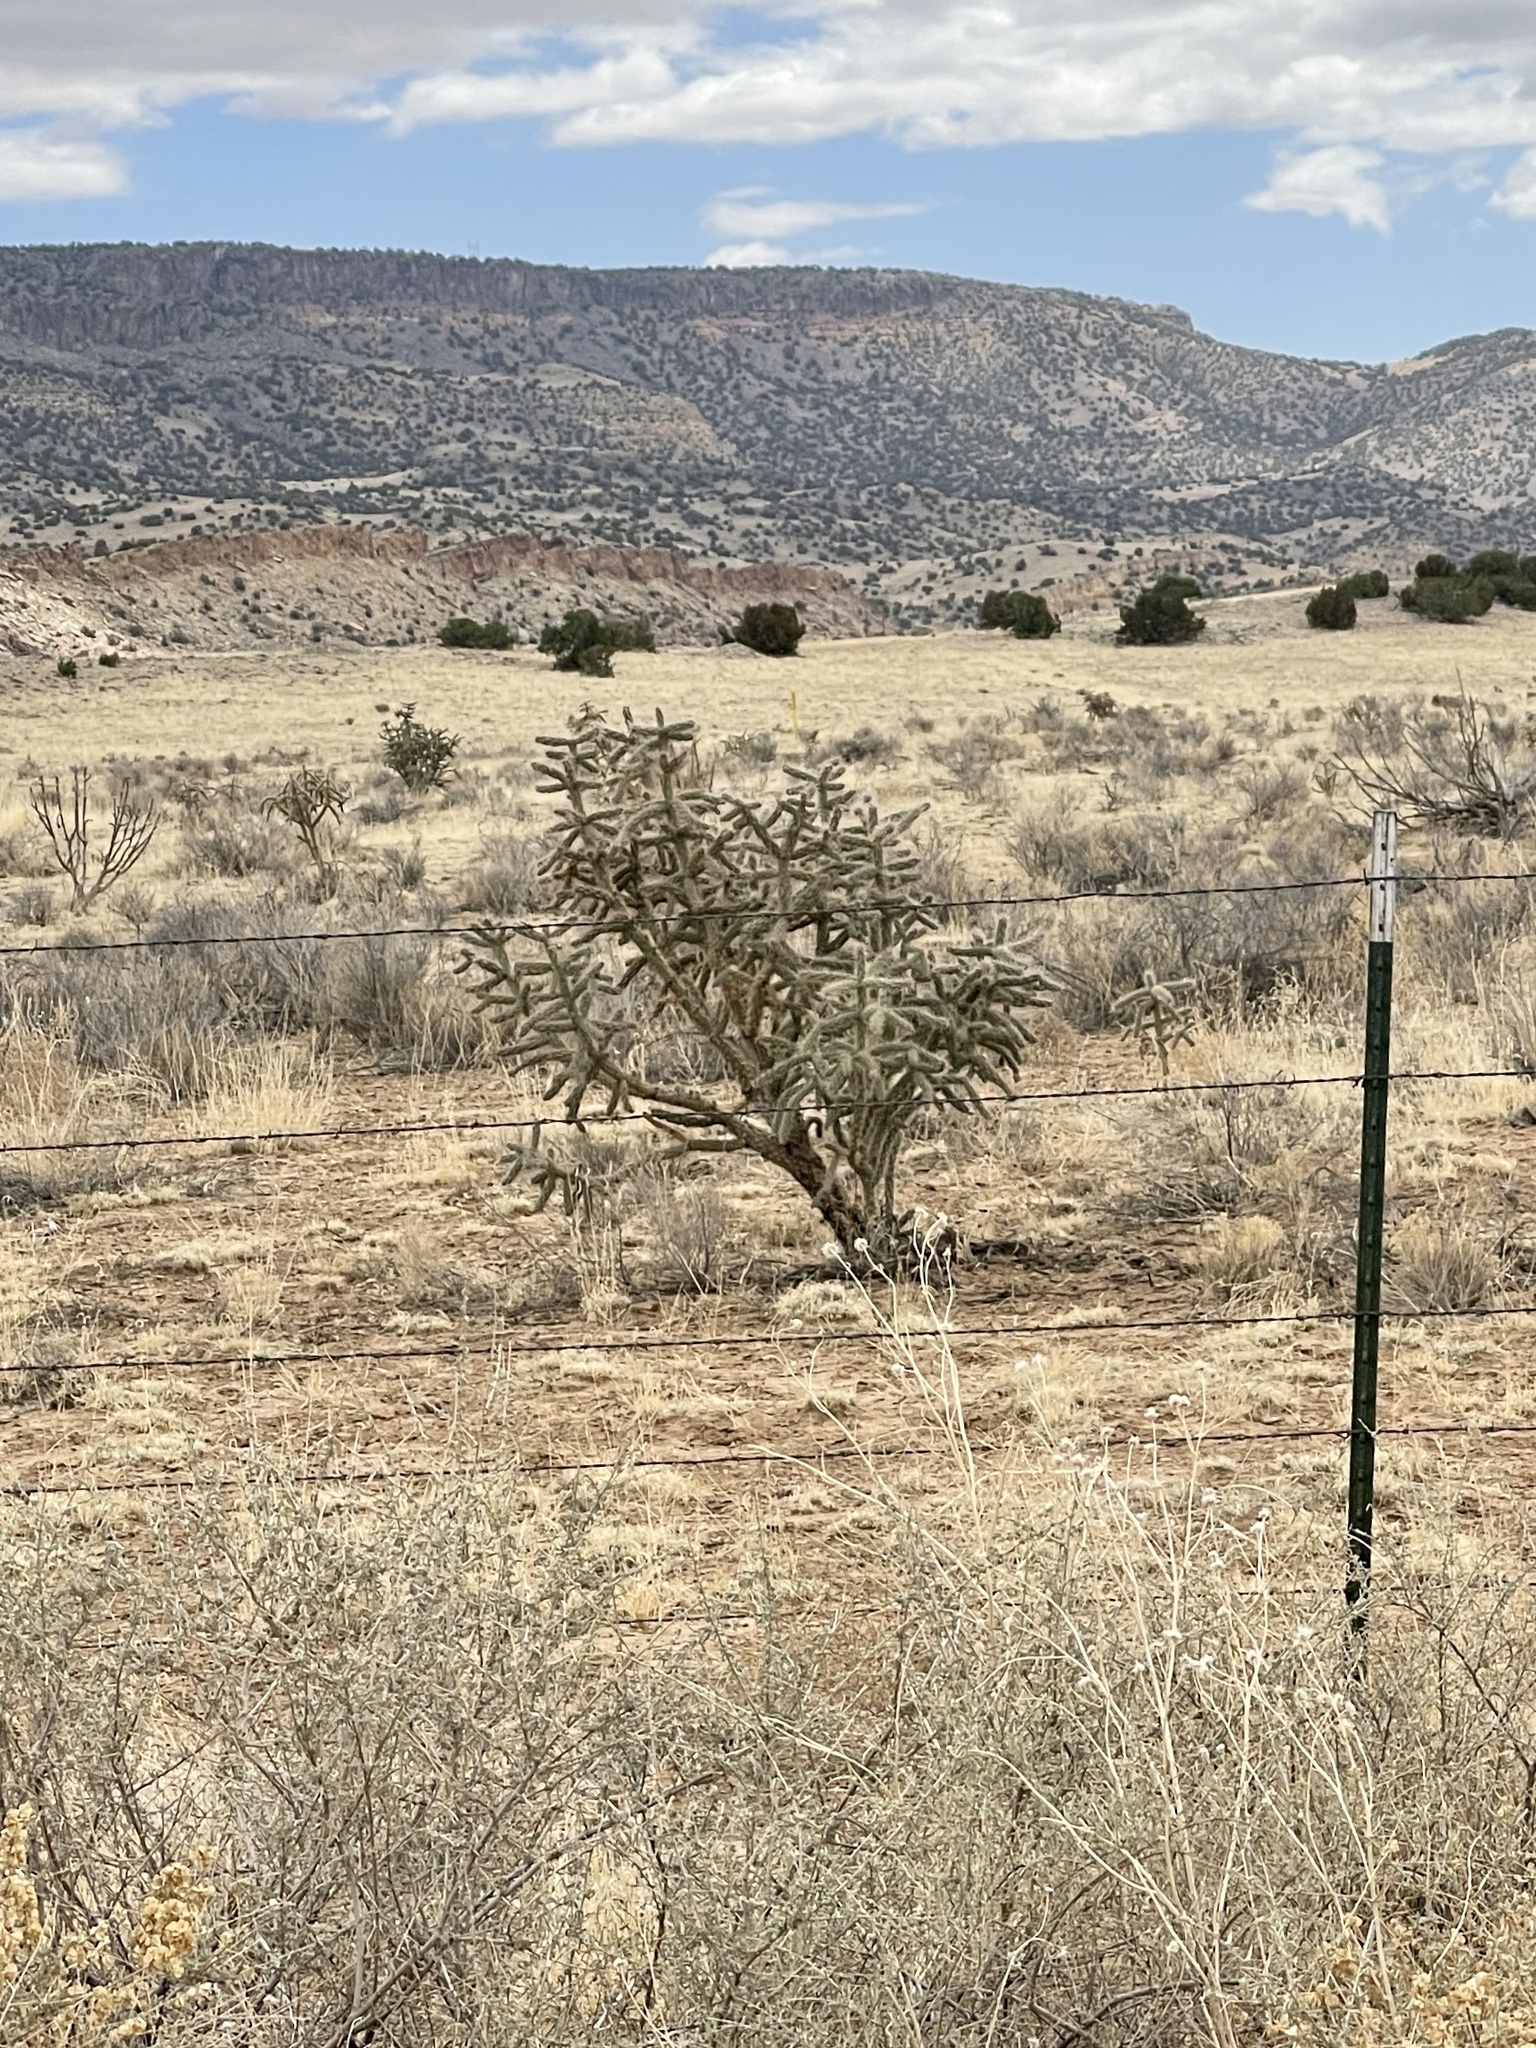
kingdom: Plantae
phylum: Tracheophyta
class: Magnoliopsida
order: Caryophyllales
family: Cactaceae
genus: Cylindropuntia
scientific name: Cylindropuntia imbricata
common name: Candelabrum cactus
